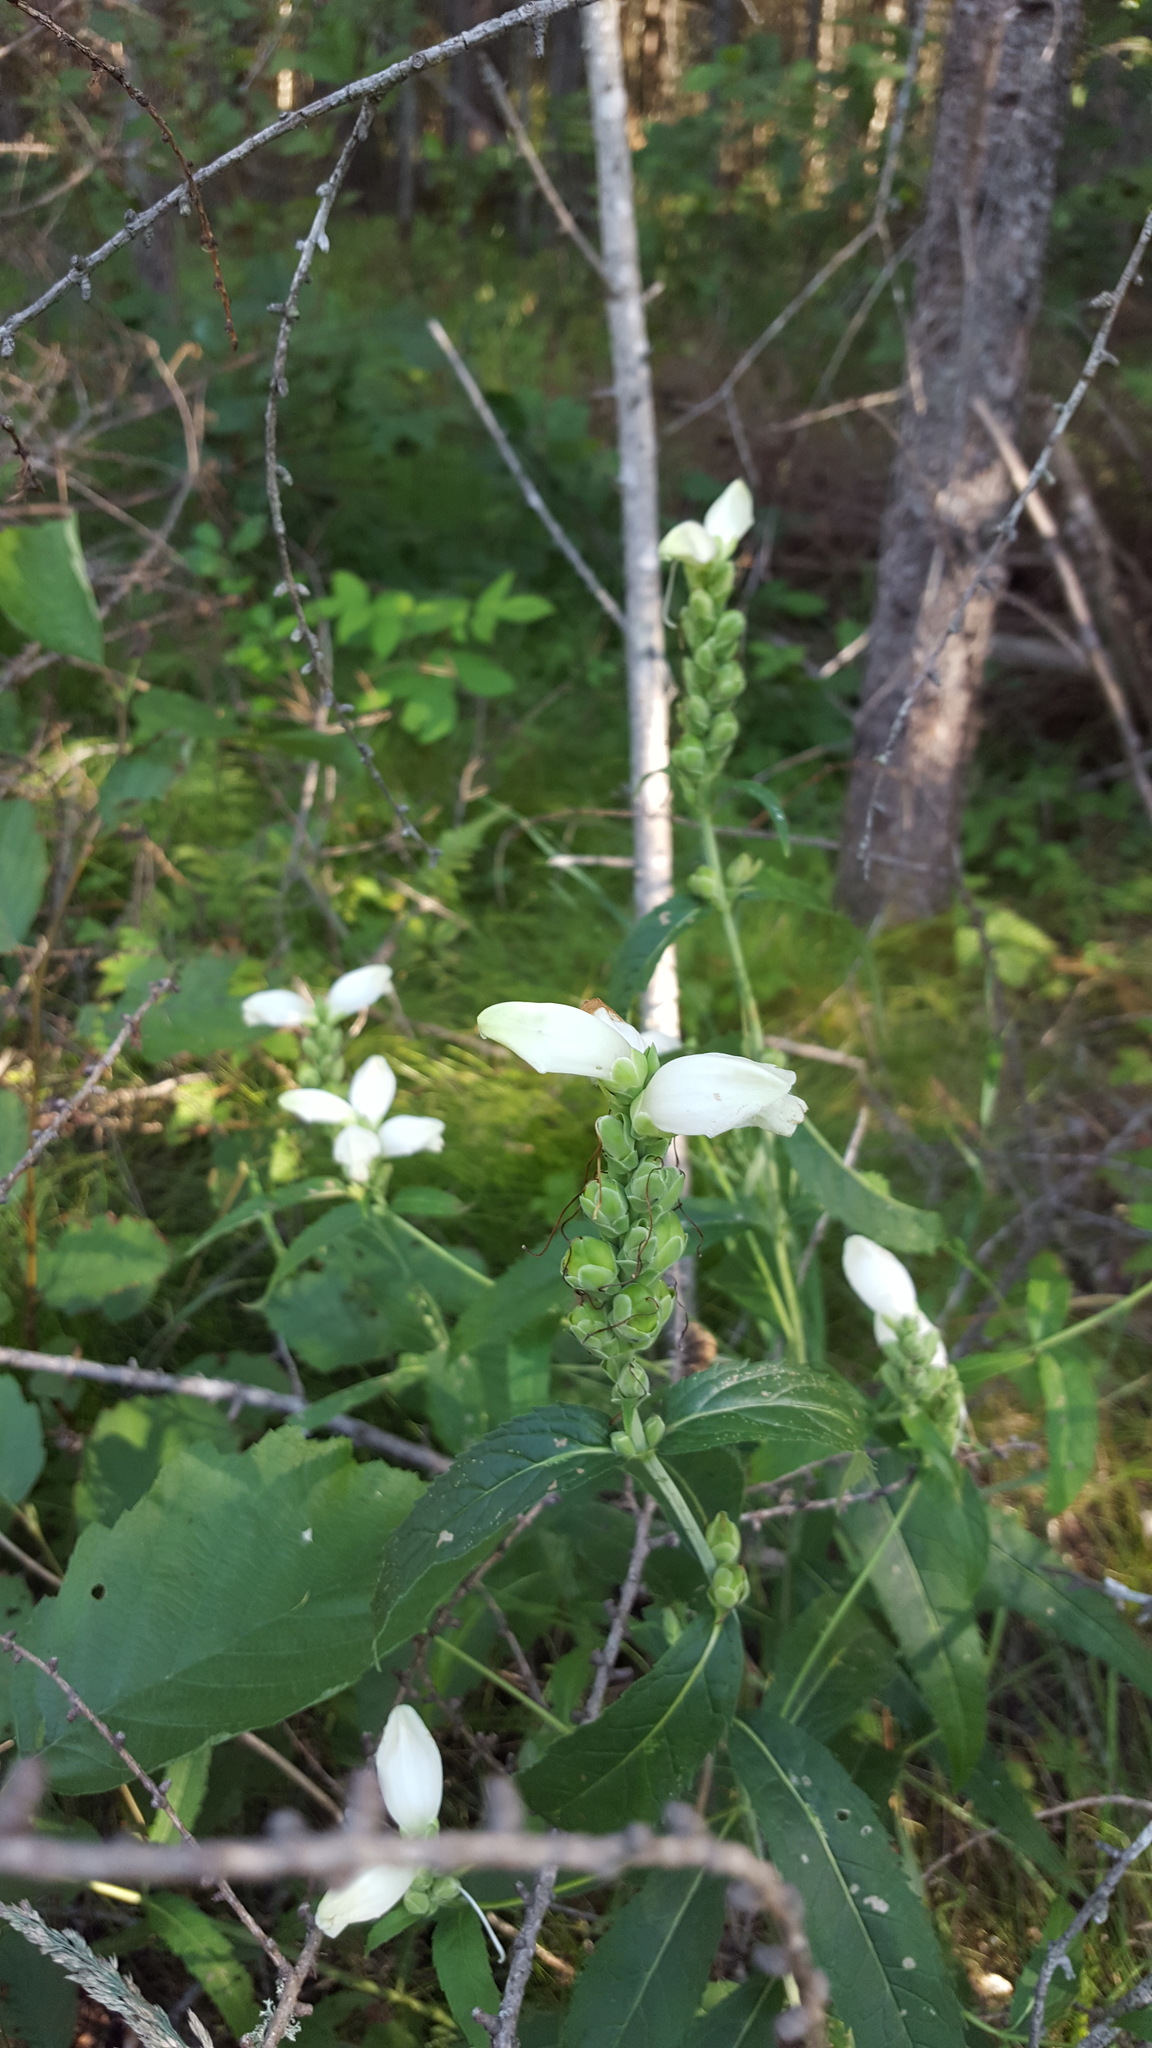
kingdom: Plantae
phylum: Tracheophyta
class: Magnoliopsida
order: Lamiales
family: Plantaginaceae
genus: Chelone
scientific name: Chelone glabra
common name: Snakehead
